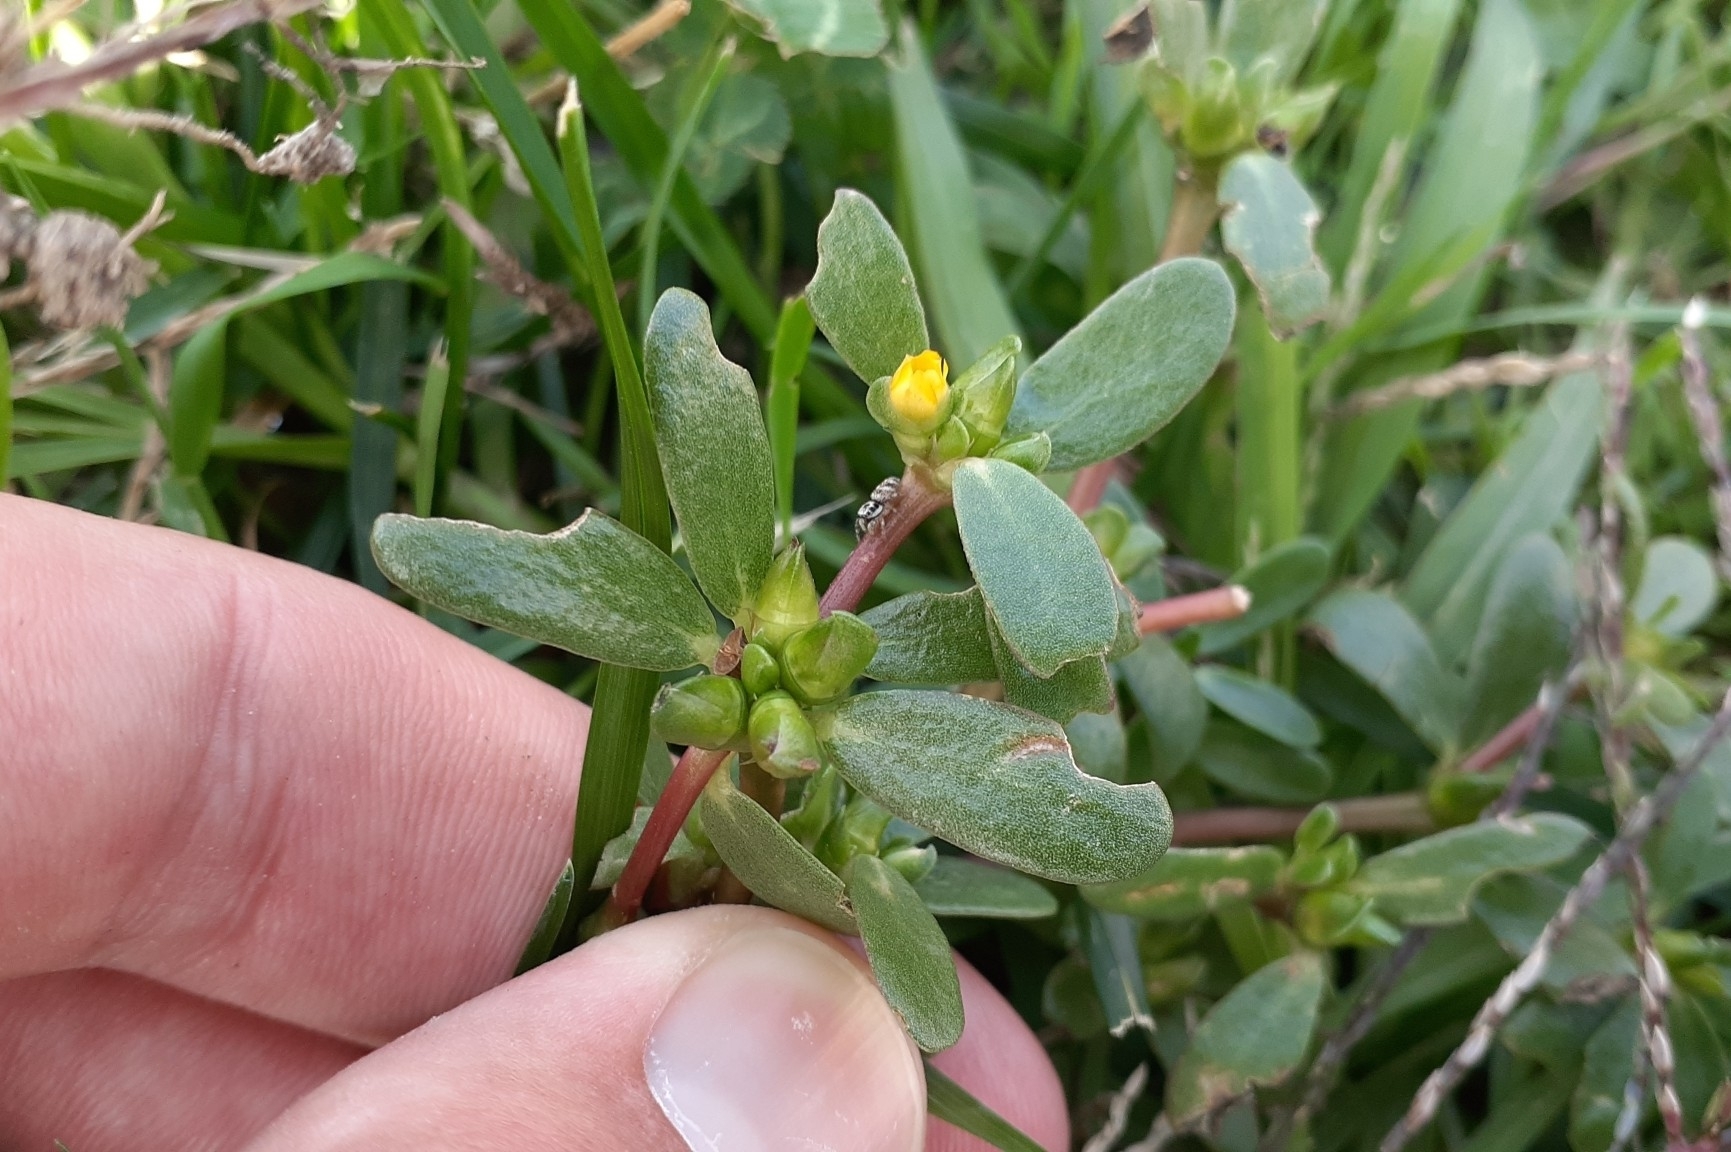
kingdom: Plantae
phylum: Tracheophyta
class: Magnoliopsida
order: Caryophyllales
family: Portulacaceae
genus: Portulaca
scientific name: Portulaca oleracea
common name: Common purslane
